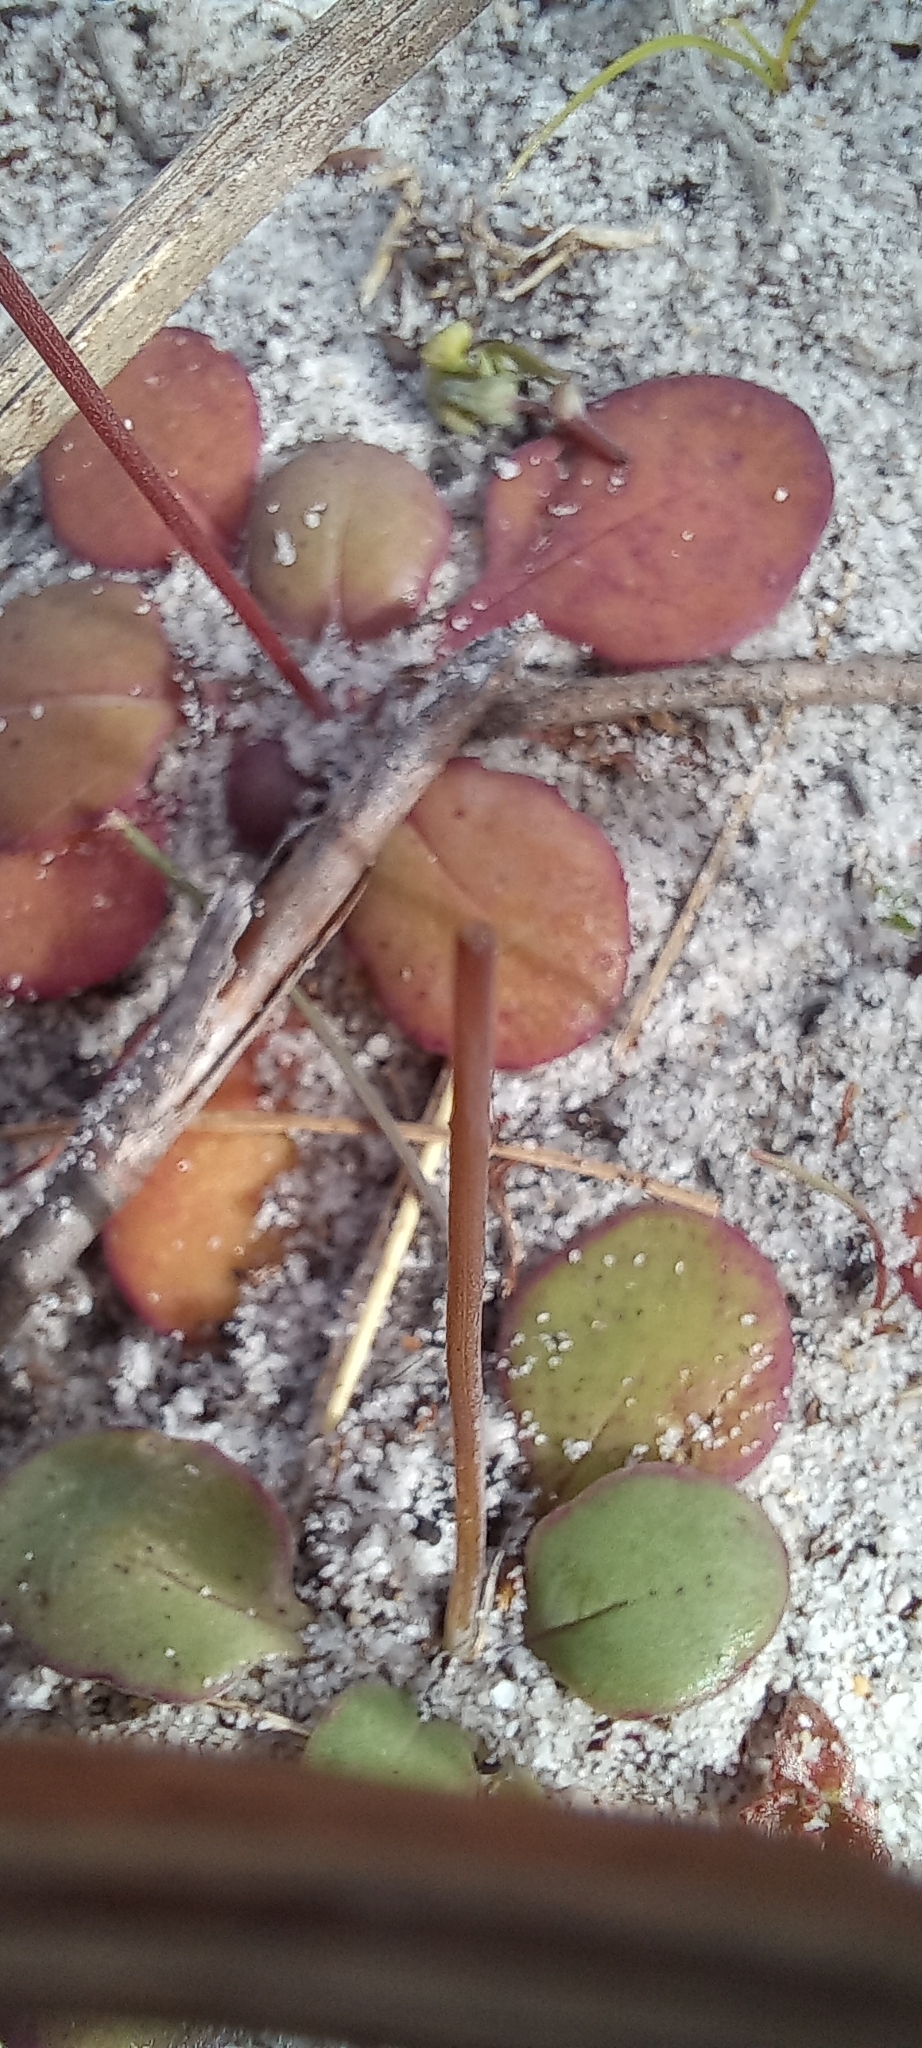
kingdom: Plantae
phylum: Tracheophyta
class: Magnoliopsida
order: Asterales
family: Asteraceae
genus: Gymnodiscus
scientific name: Gymnodiscus capillaris
